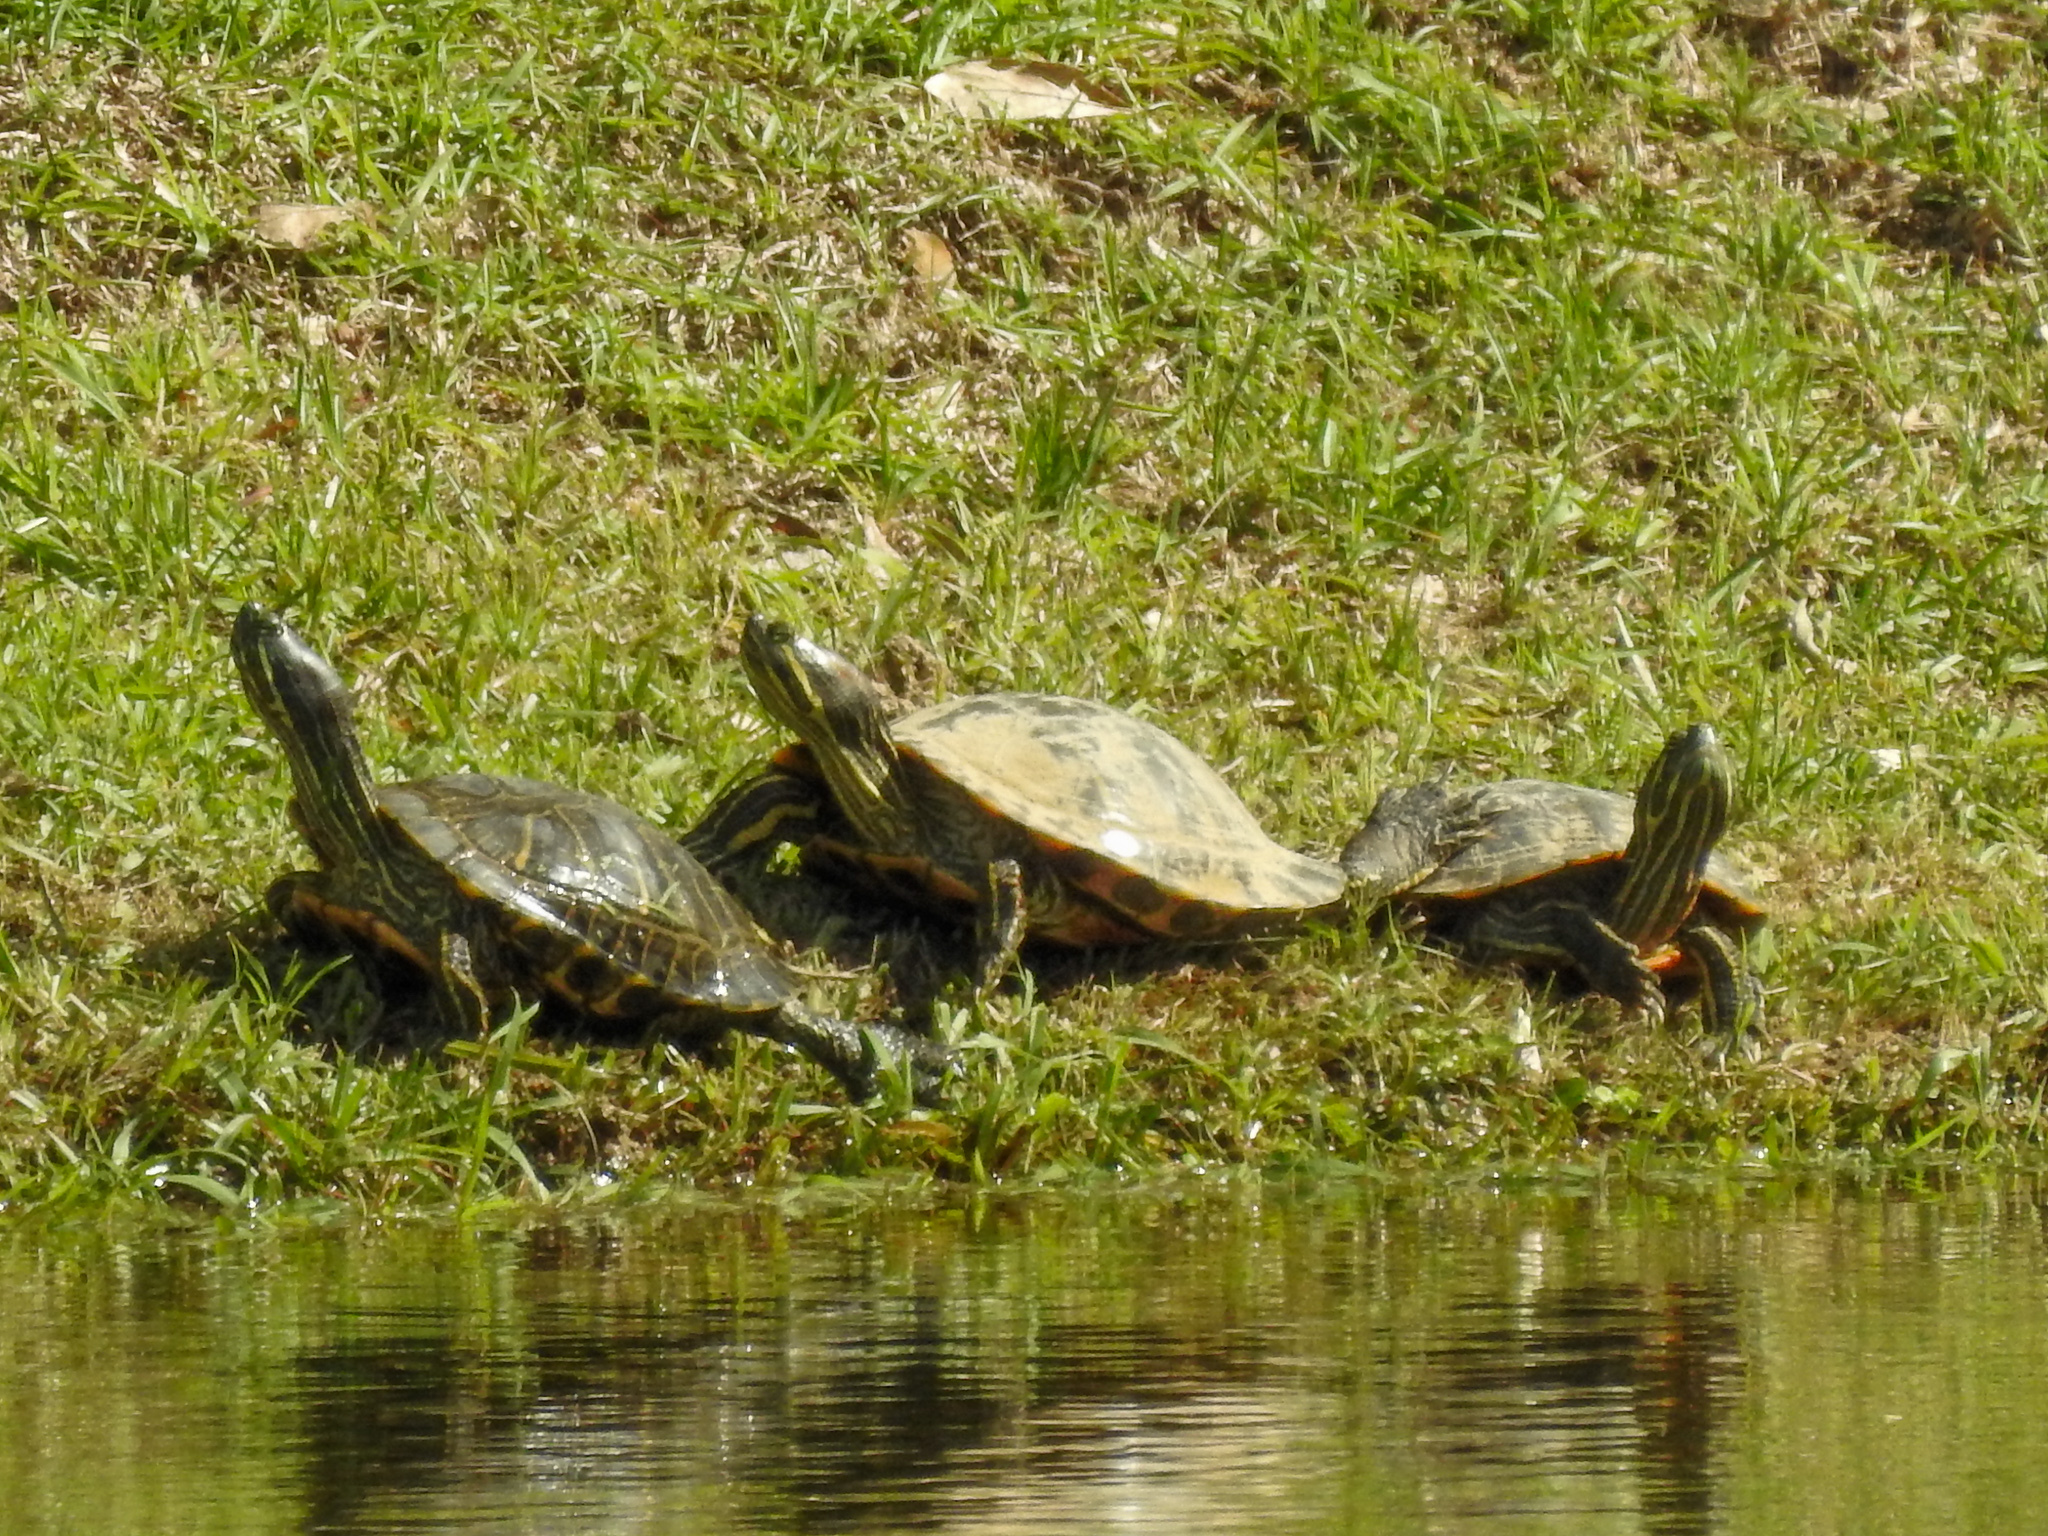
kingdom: Animalia
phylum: Chordata
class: Testudines
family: Emydidae
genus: Trachemys
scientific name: Trachemys scripta
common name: Slider
